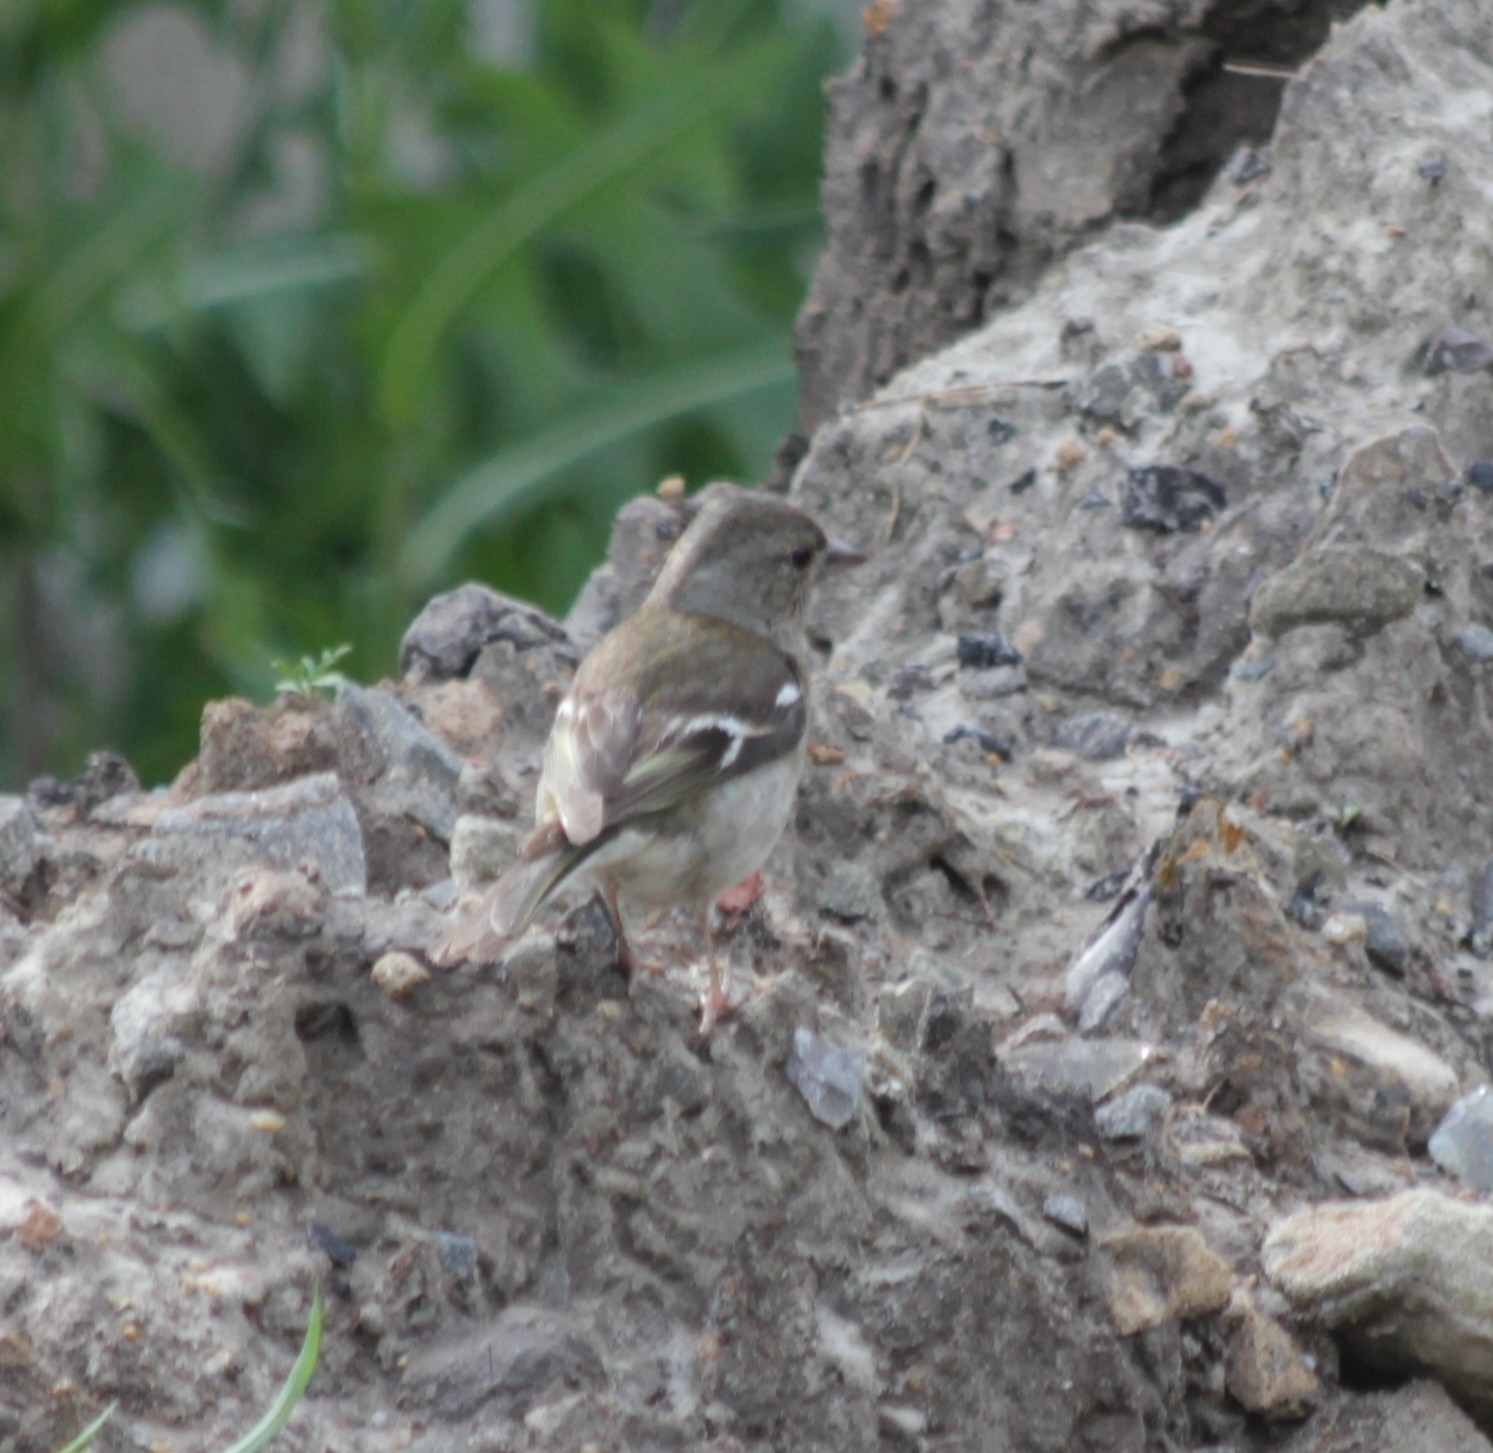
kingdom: Animalia
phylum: Chordata
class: Aves
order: Passeriformes
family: Fringillidae
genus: Fringilla
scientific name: Fringilla coelebs
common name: Common chaffinch
